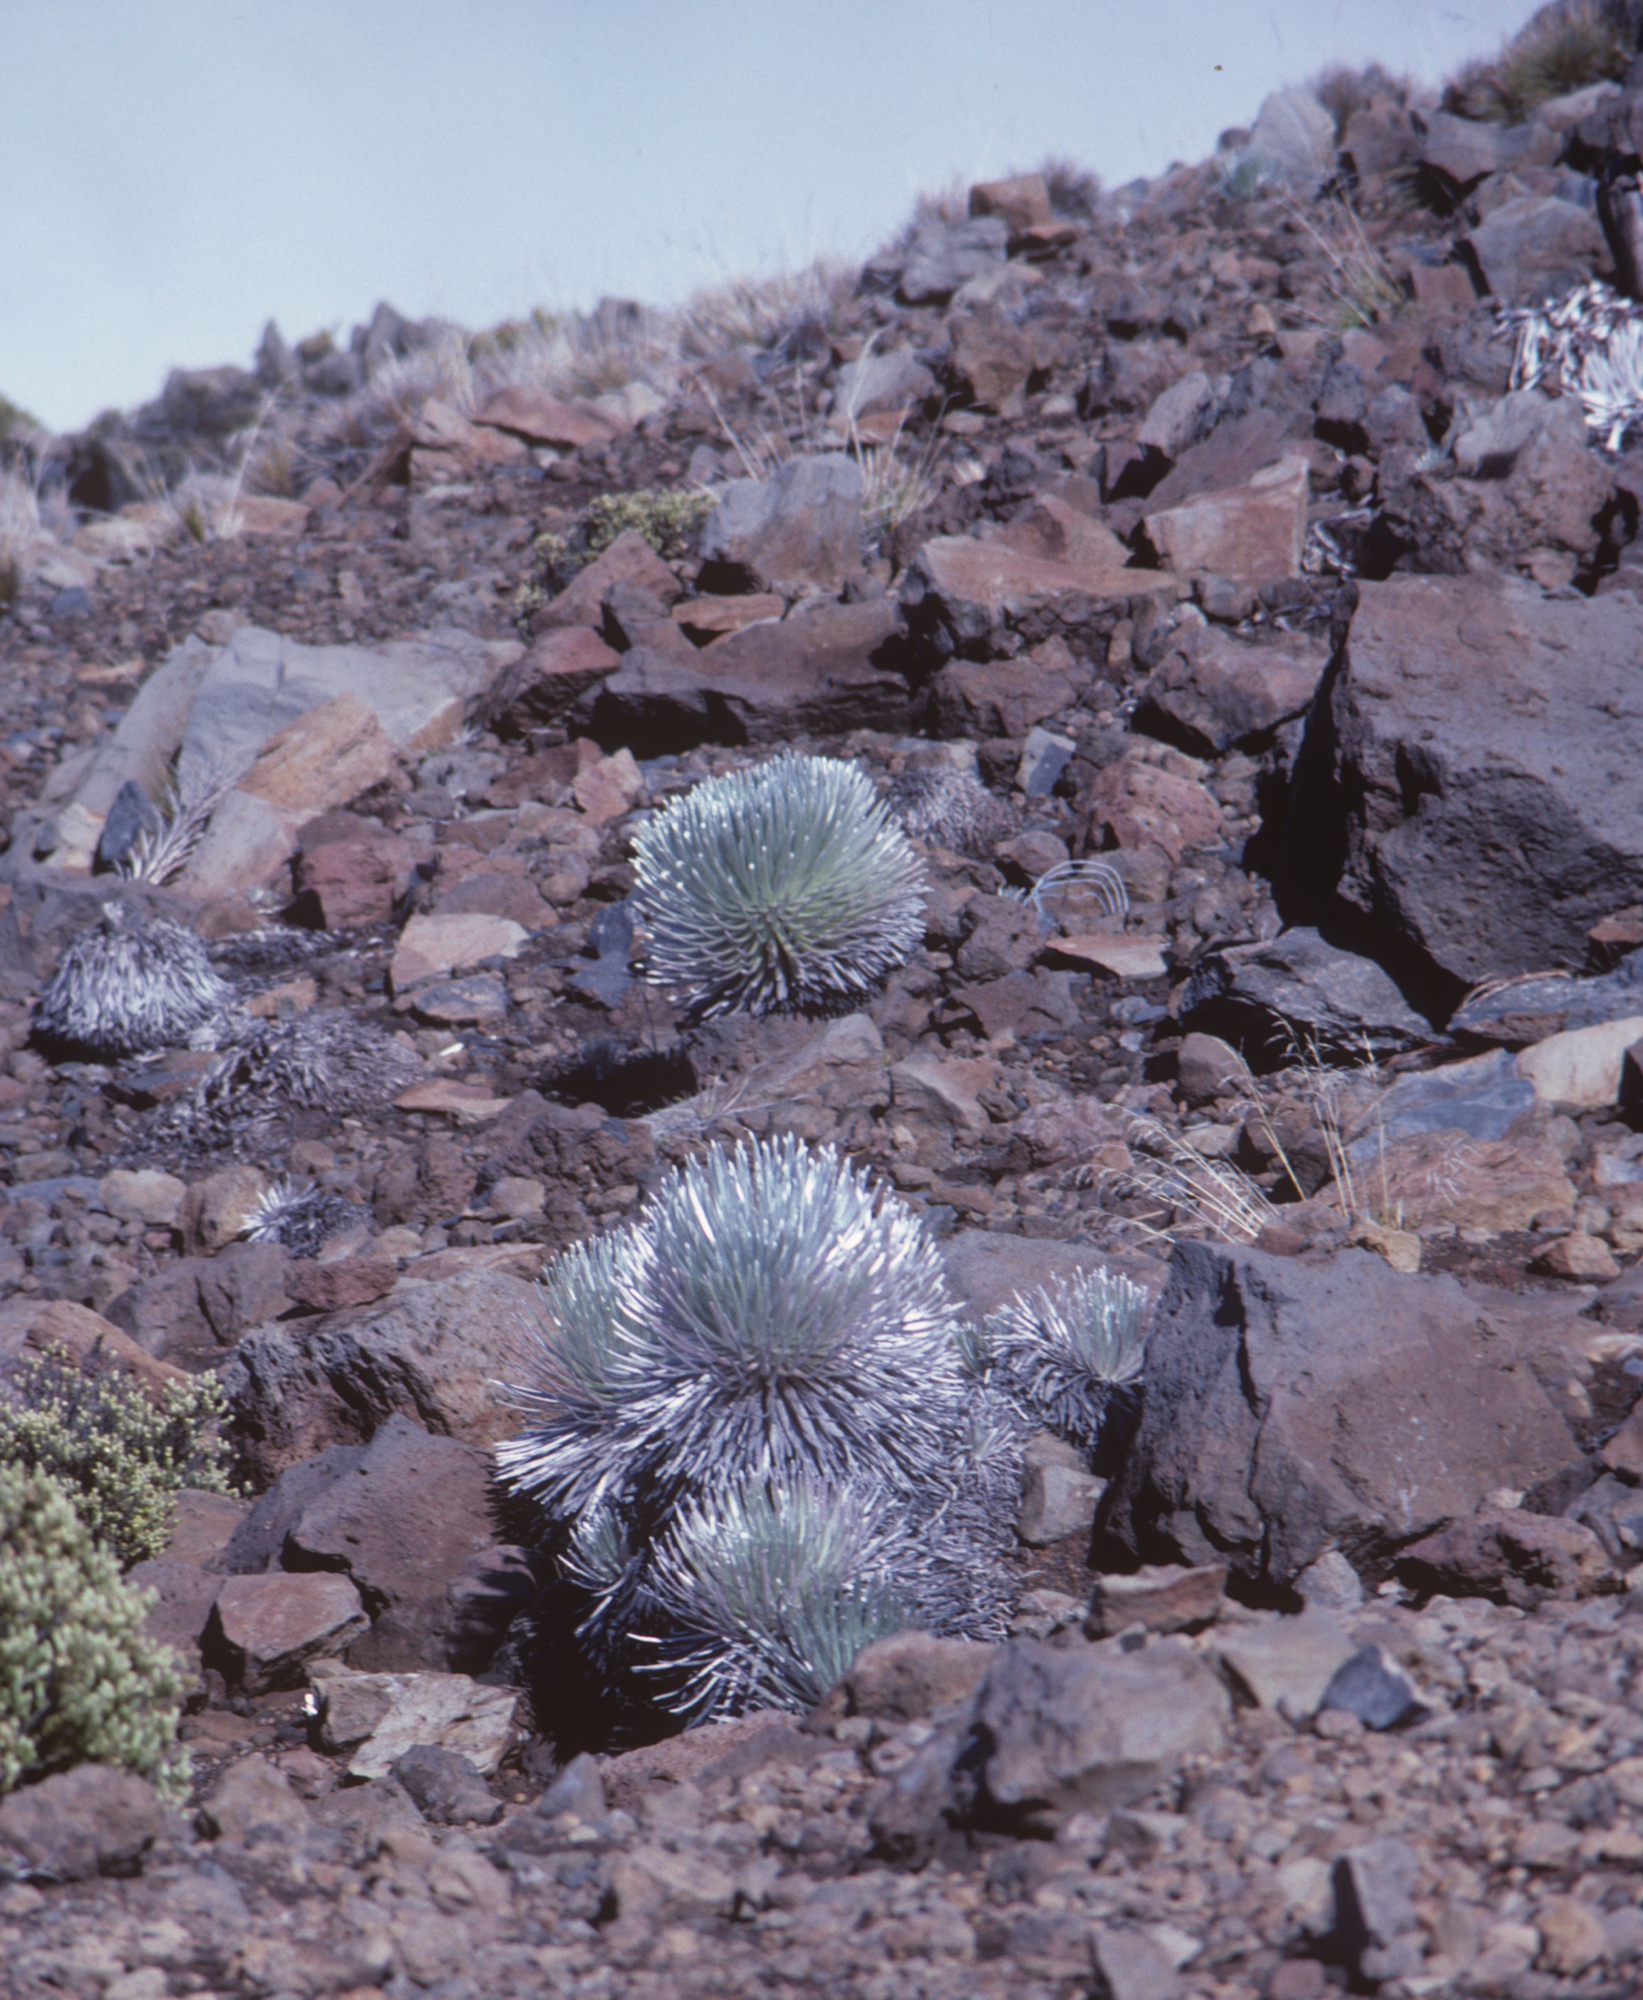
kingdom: Plantae
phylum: Tracheophyta
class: Magnoliopsida
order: Asterales
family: Asteraceae
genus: Argyroxiphium
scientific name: Argyroxiphium sandwicense
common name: Silversword
